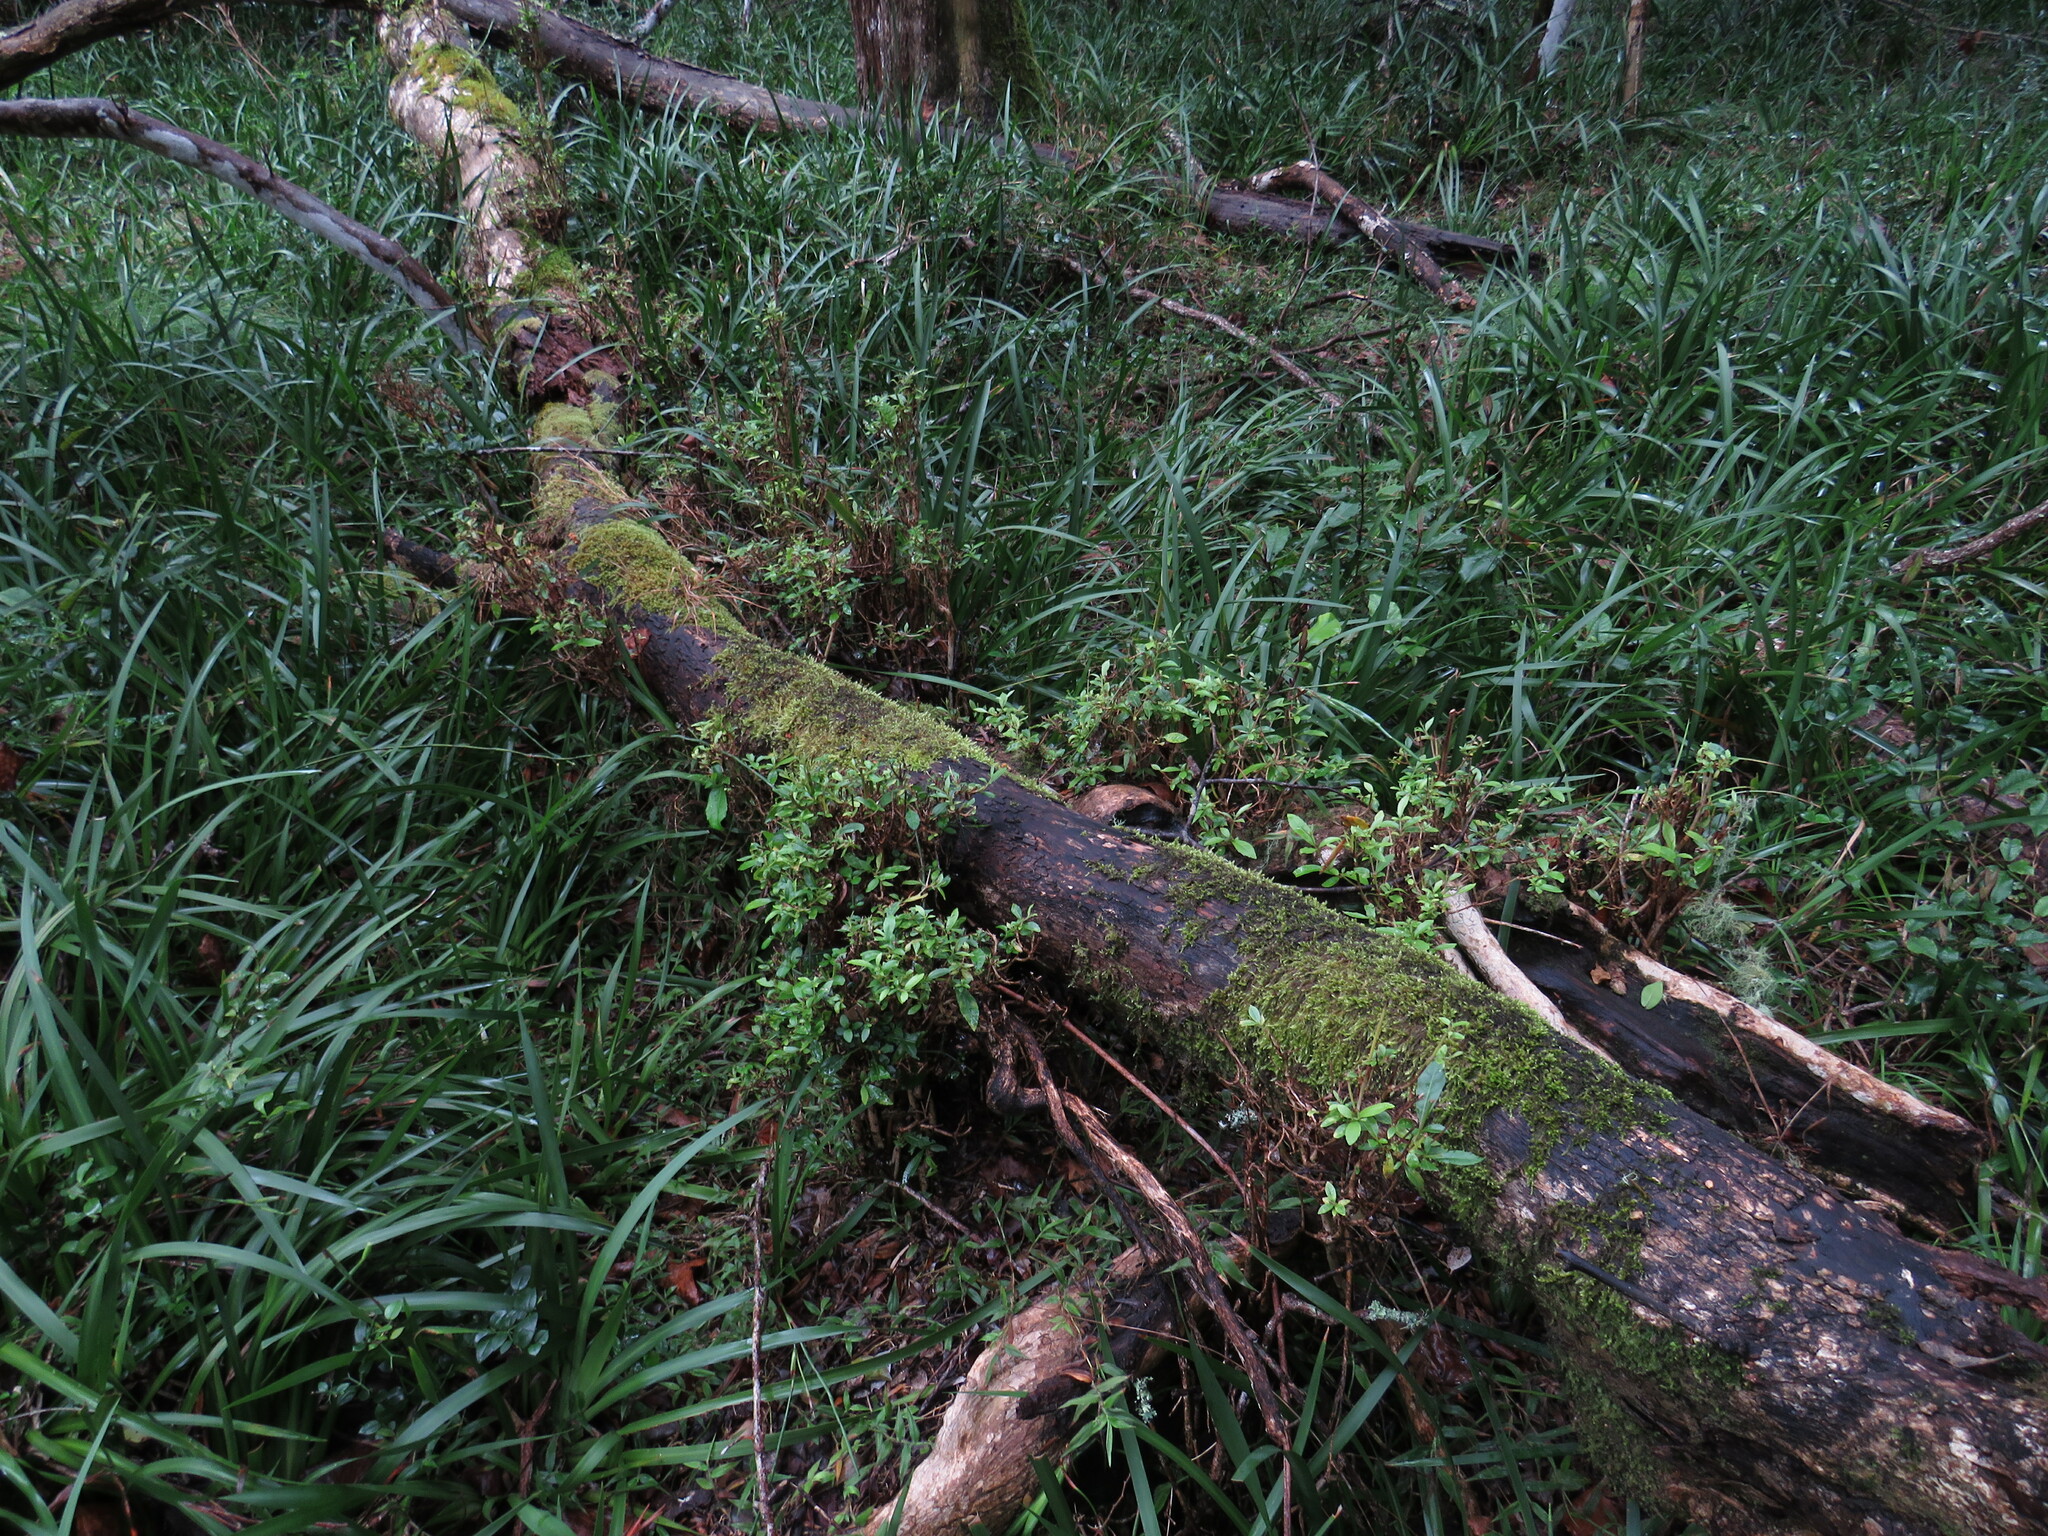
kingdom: Plantae
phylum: Tracheophyta
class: Liliopsida
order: Asparagales
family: Iridaceae
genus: Dietes
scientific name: Dietes iridioides
